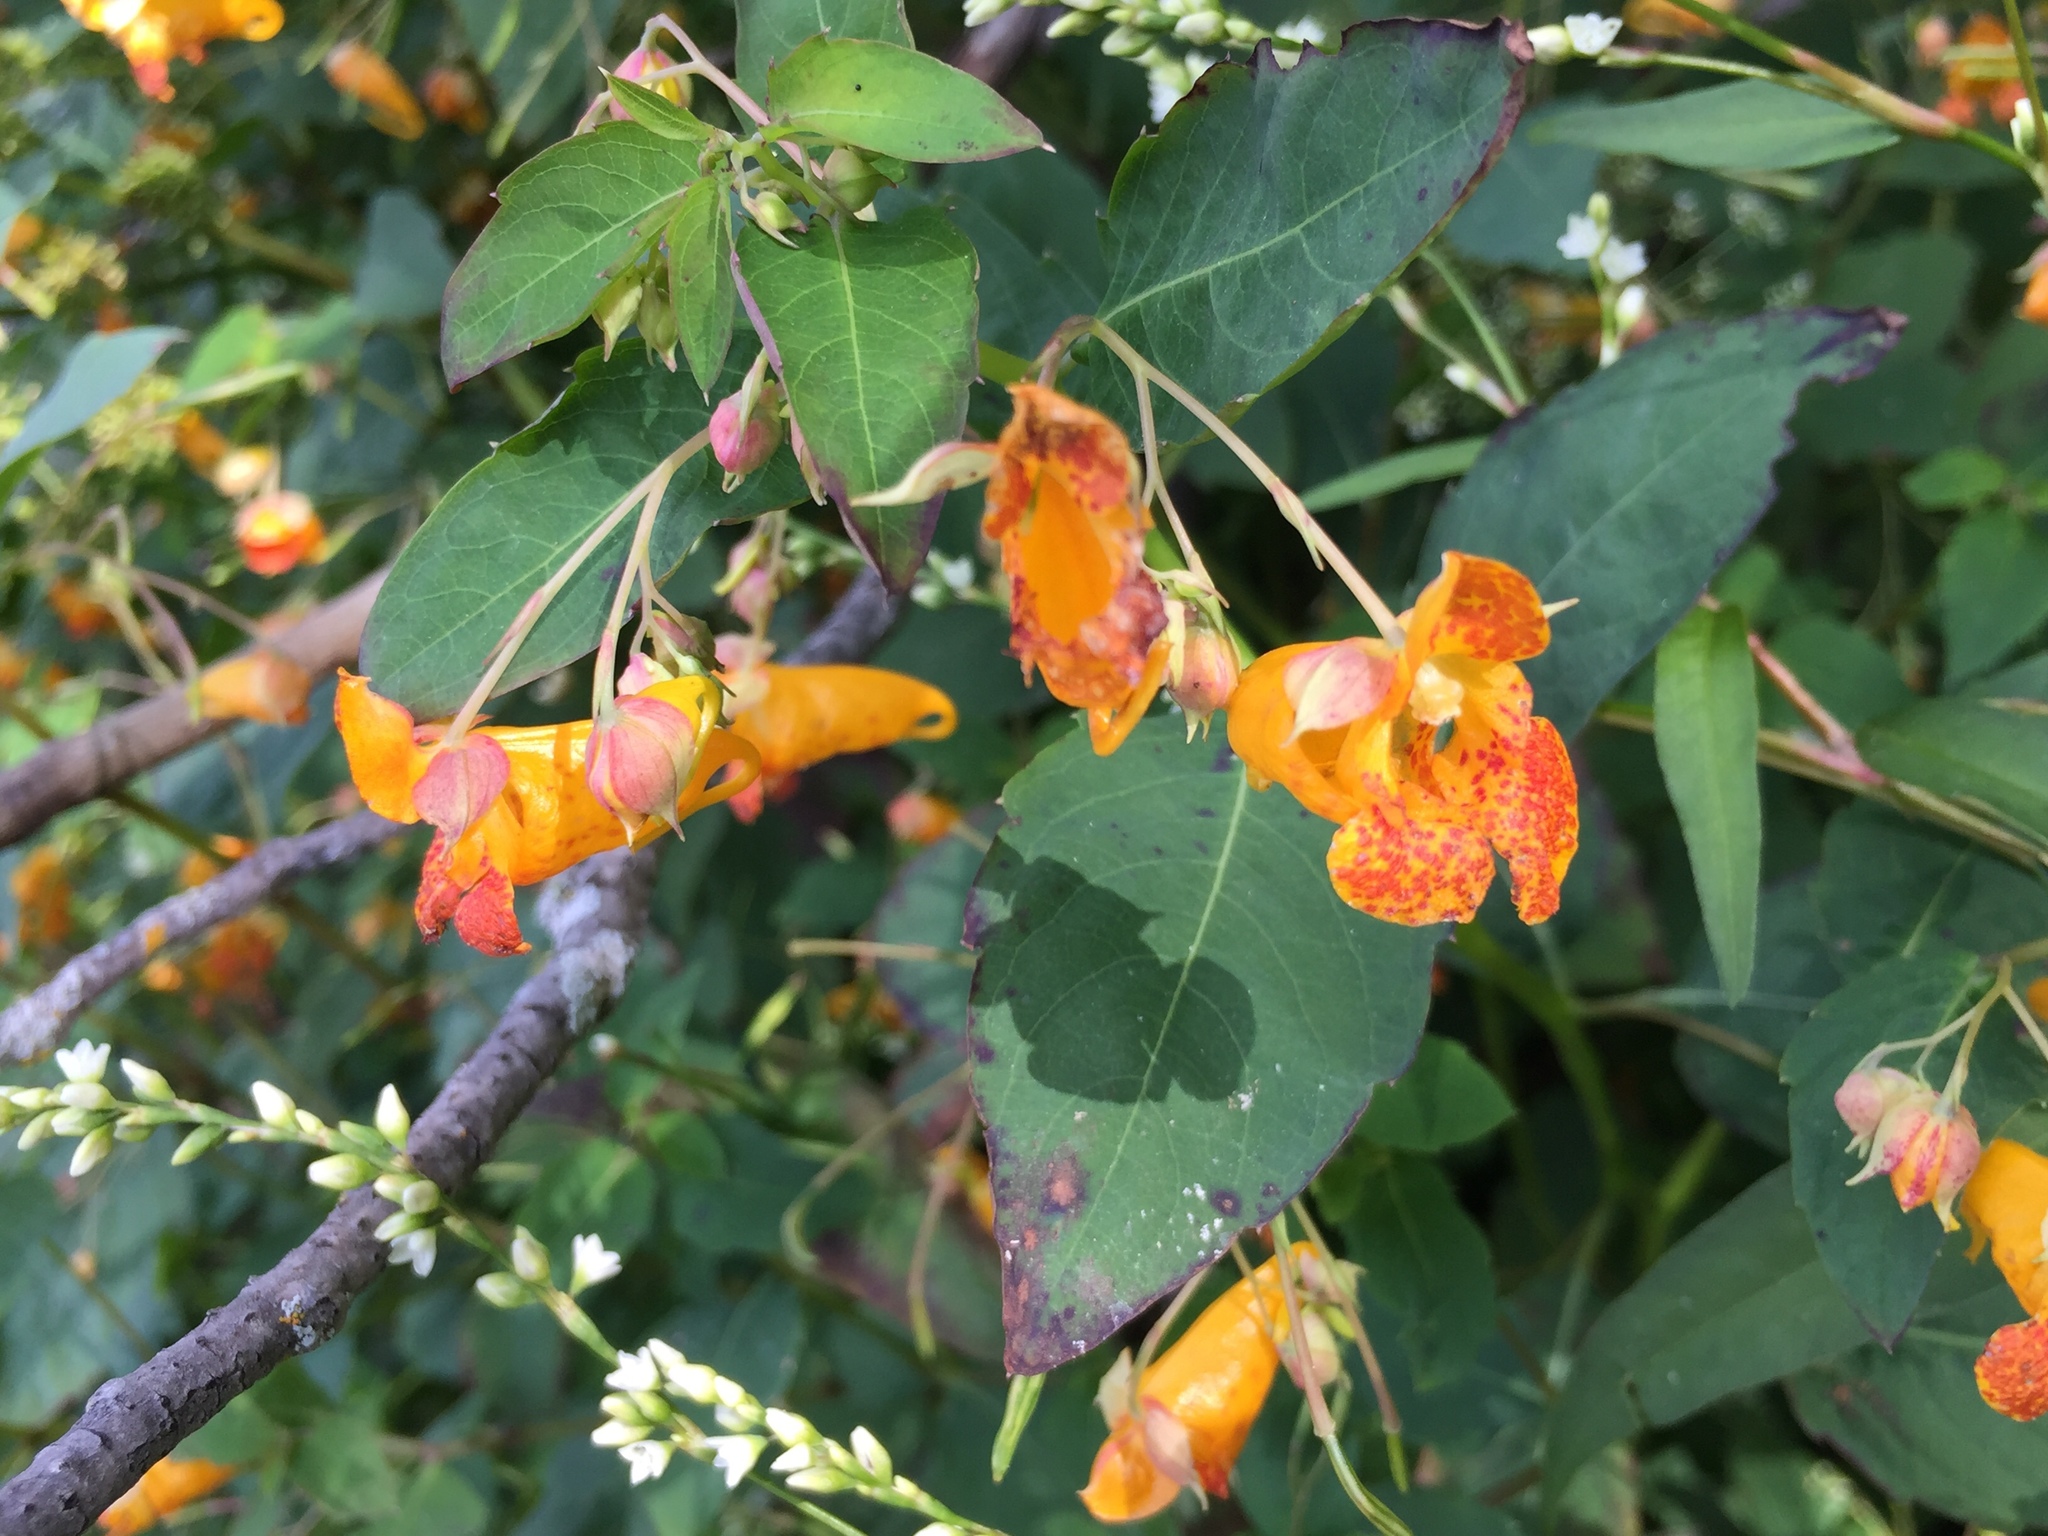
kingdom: Plantae
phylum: Tracheophyta
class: Magnoliopsida
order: Ericales
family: Balsaminaceae
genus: Impatiens
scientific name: Impatiens capensis
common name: Orange balsam
